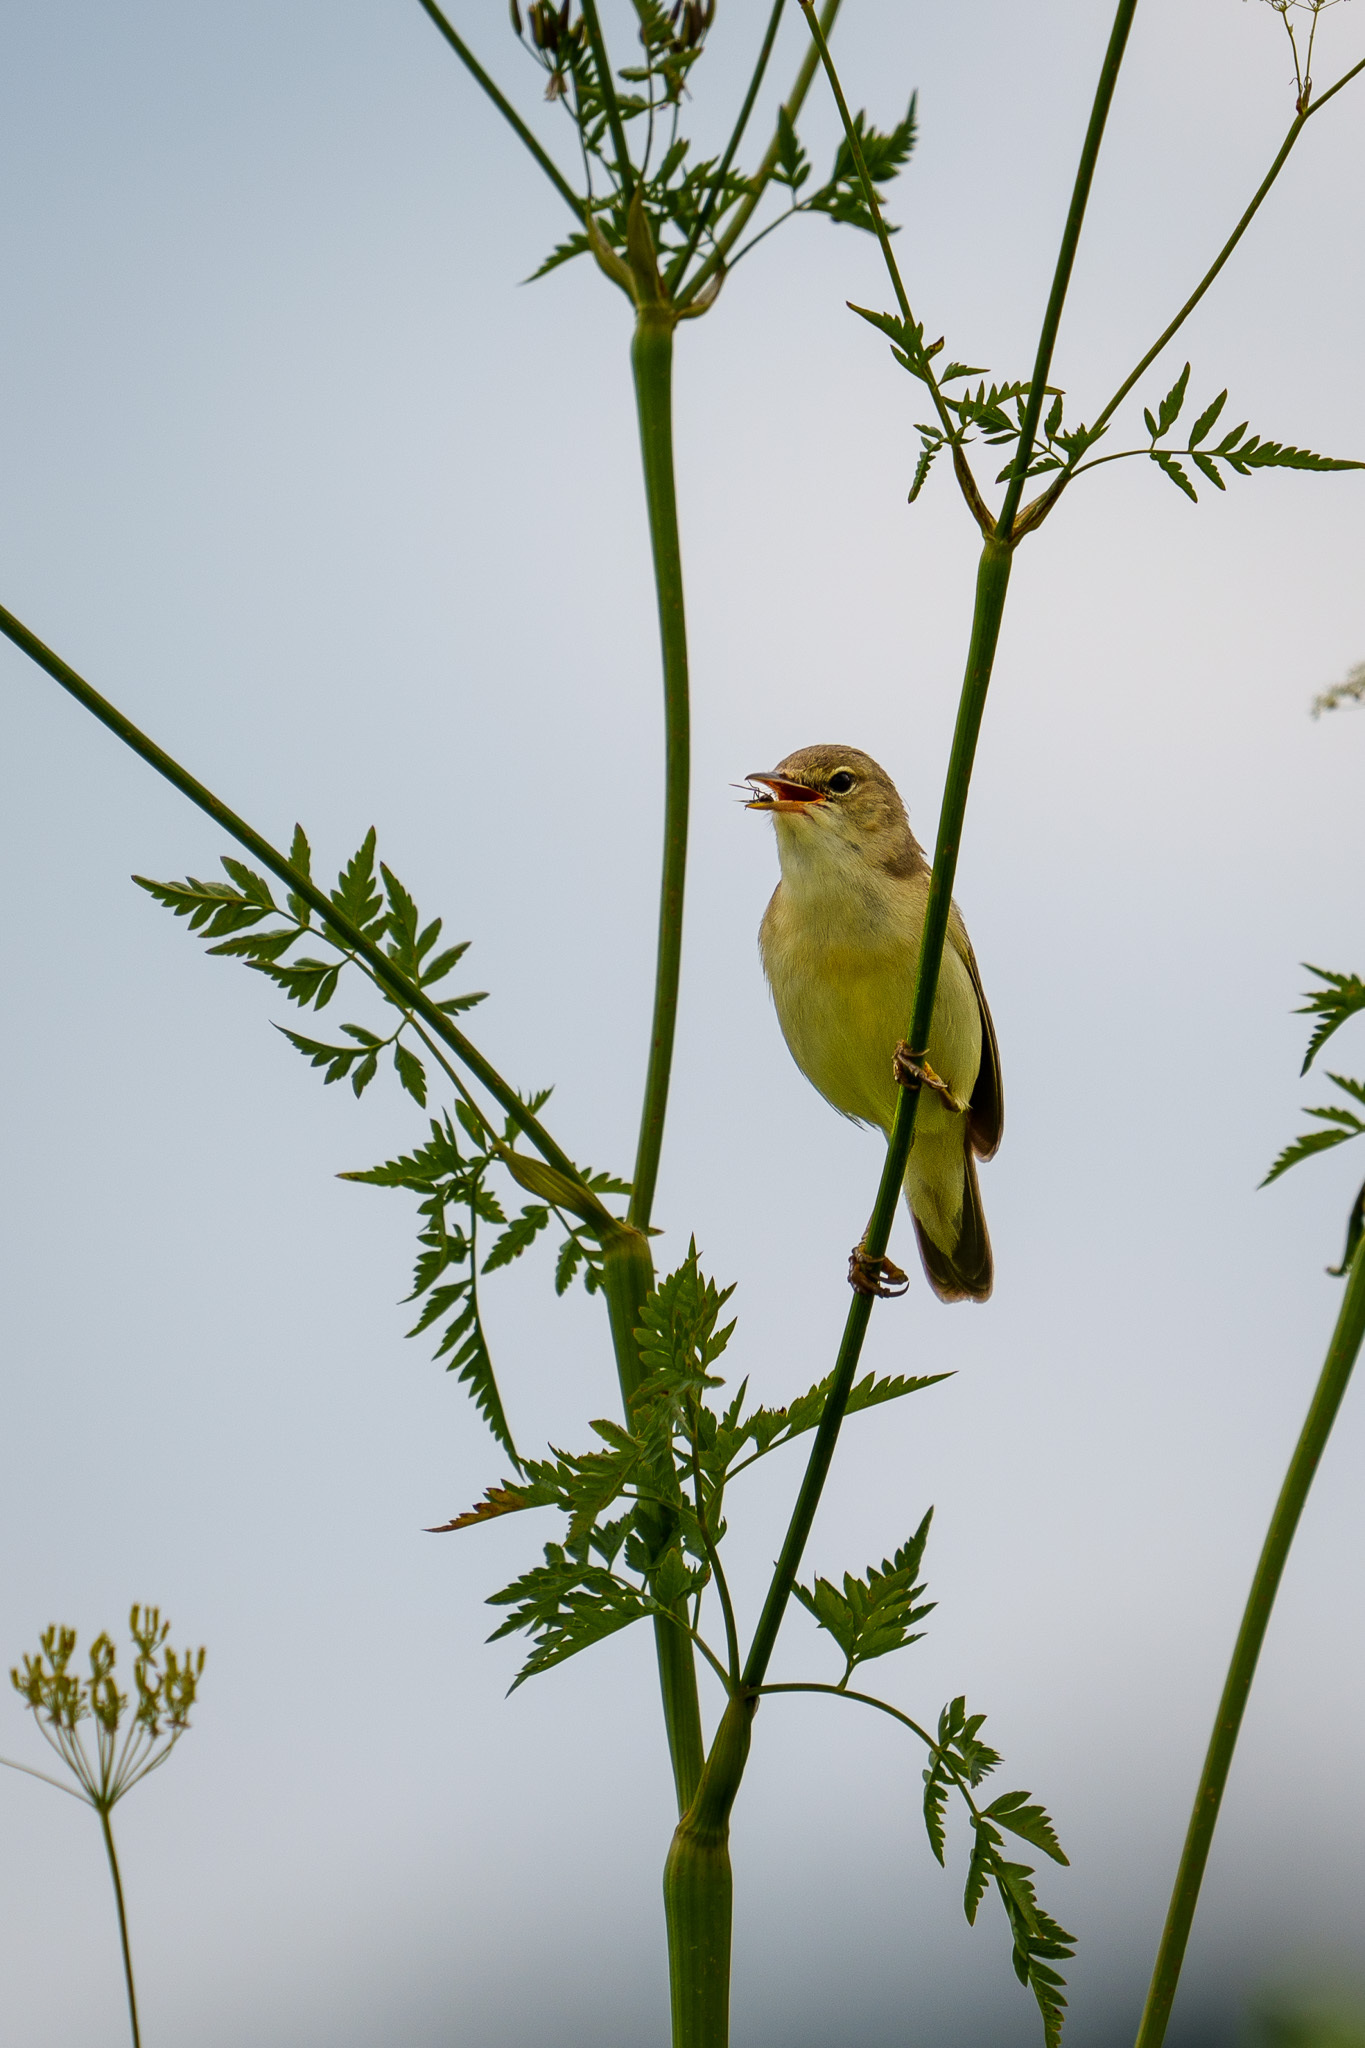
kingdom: Animalia
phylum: Chordata
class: Aves
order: Passeriformes
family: Acrocephalidae
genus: Acrocephalus
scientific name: Acrocephalus palustris
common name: Marsh warbler
